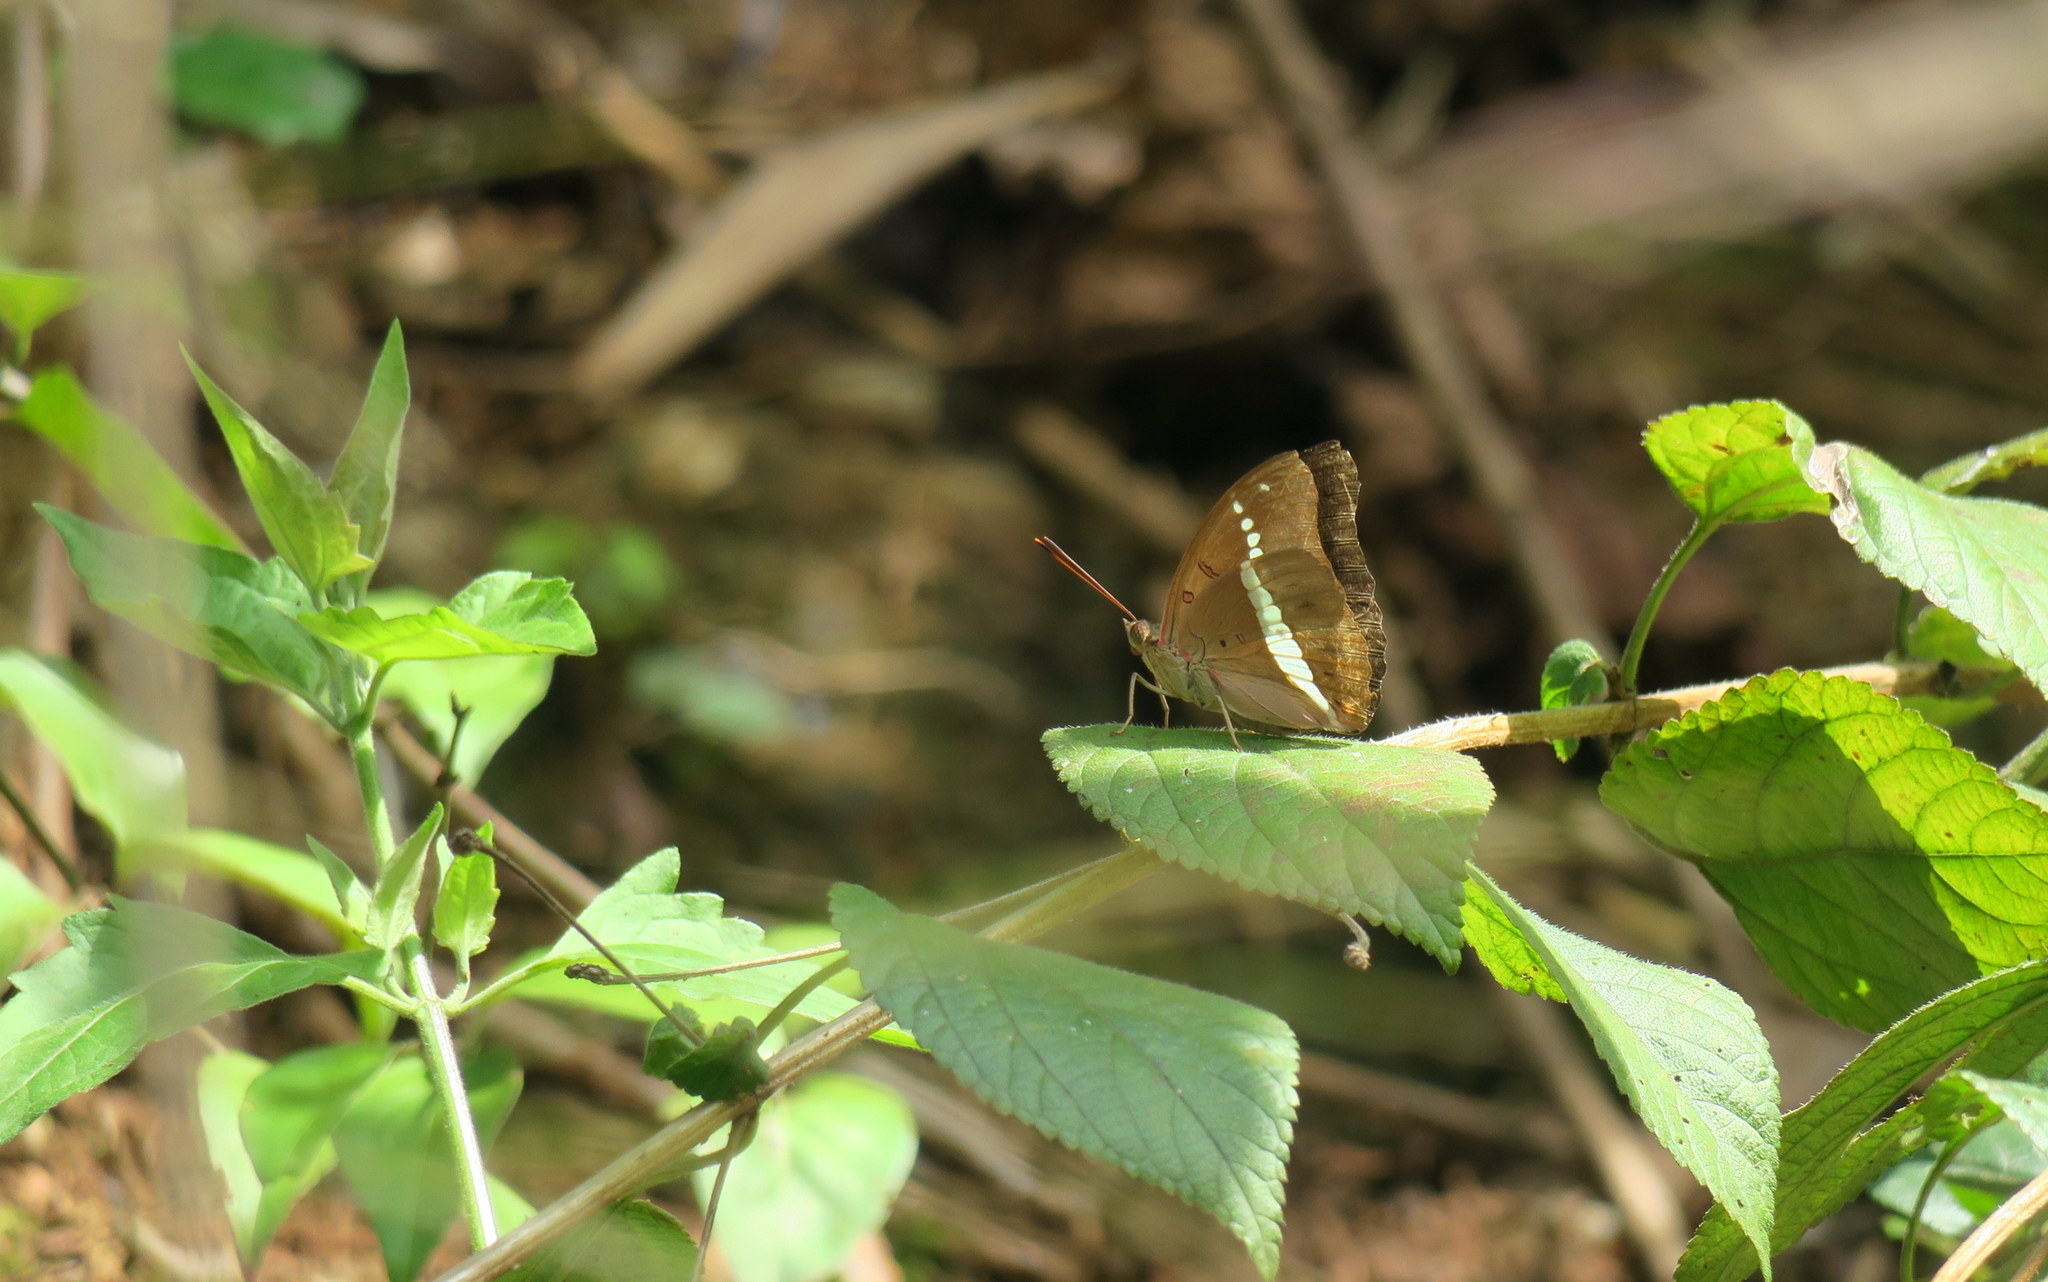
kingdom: Animalia
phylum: Arthropoda
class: Insecta
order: Lepidoptera
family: Nymphalidae
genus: Euthalia
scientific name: Euthalia recta
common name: Redtail marquis
